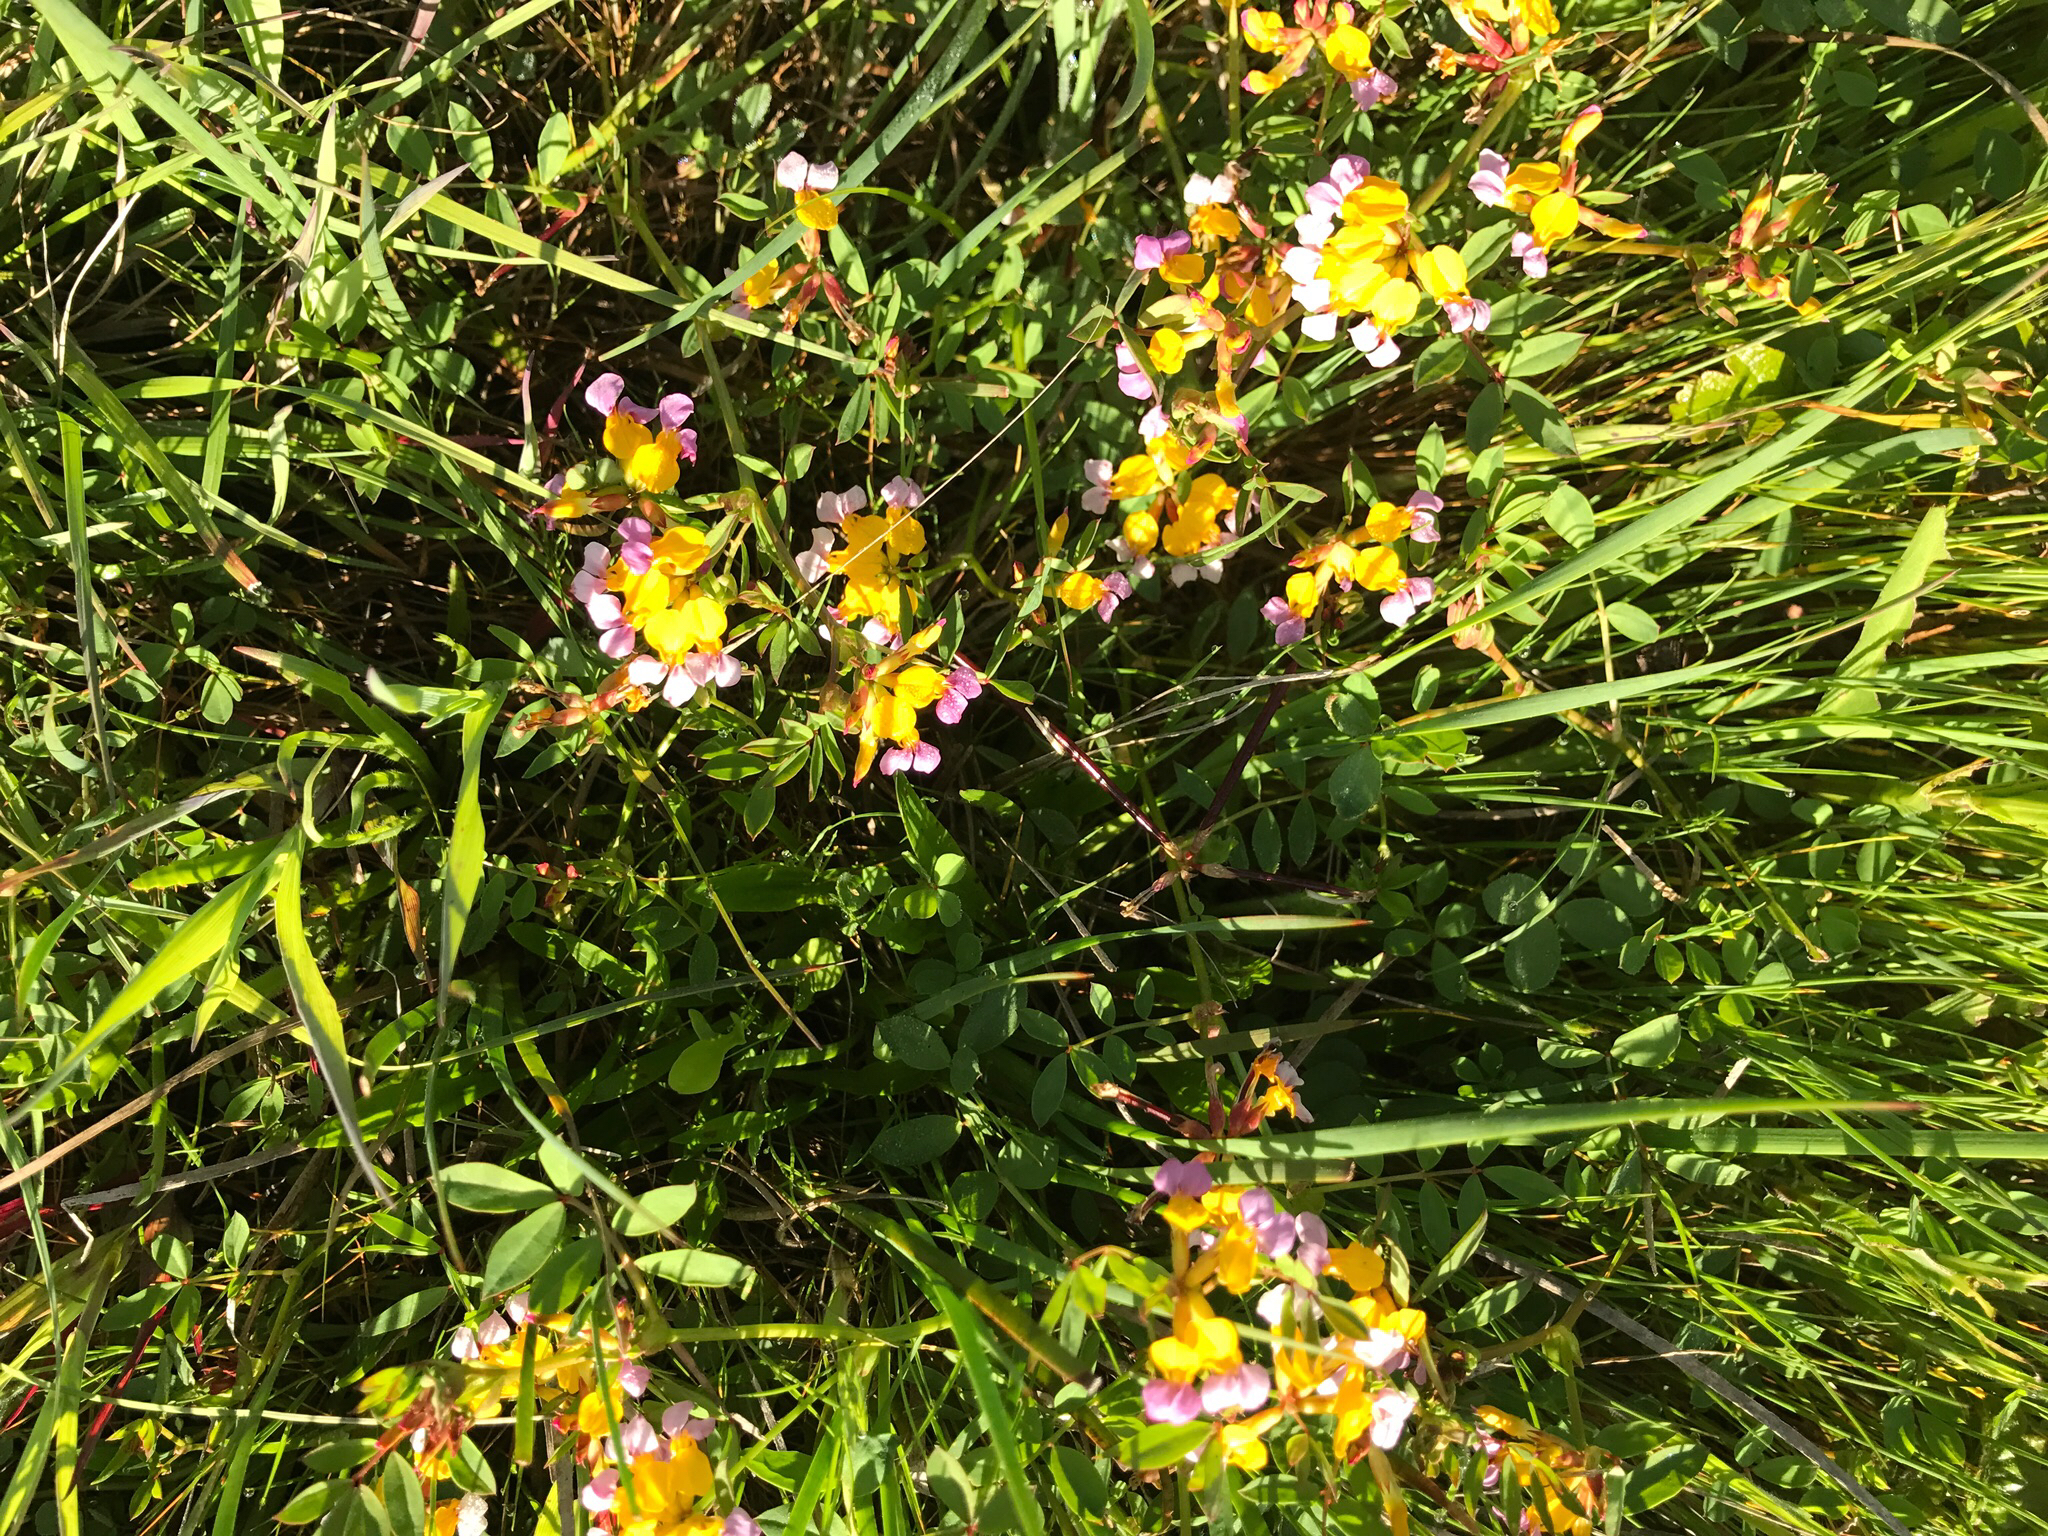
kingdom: Plantae
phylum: Tracheophyta
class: Magnoliopsida
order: Fabales
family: Fabaceae
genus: Hosackia
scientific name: Hosackia gracilis
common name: Seaside bird's-foot lotus
